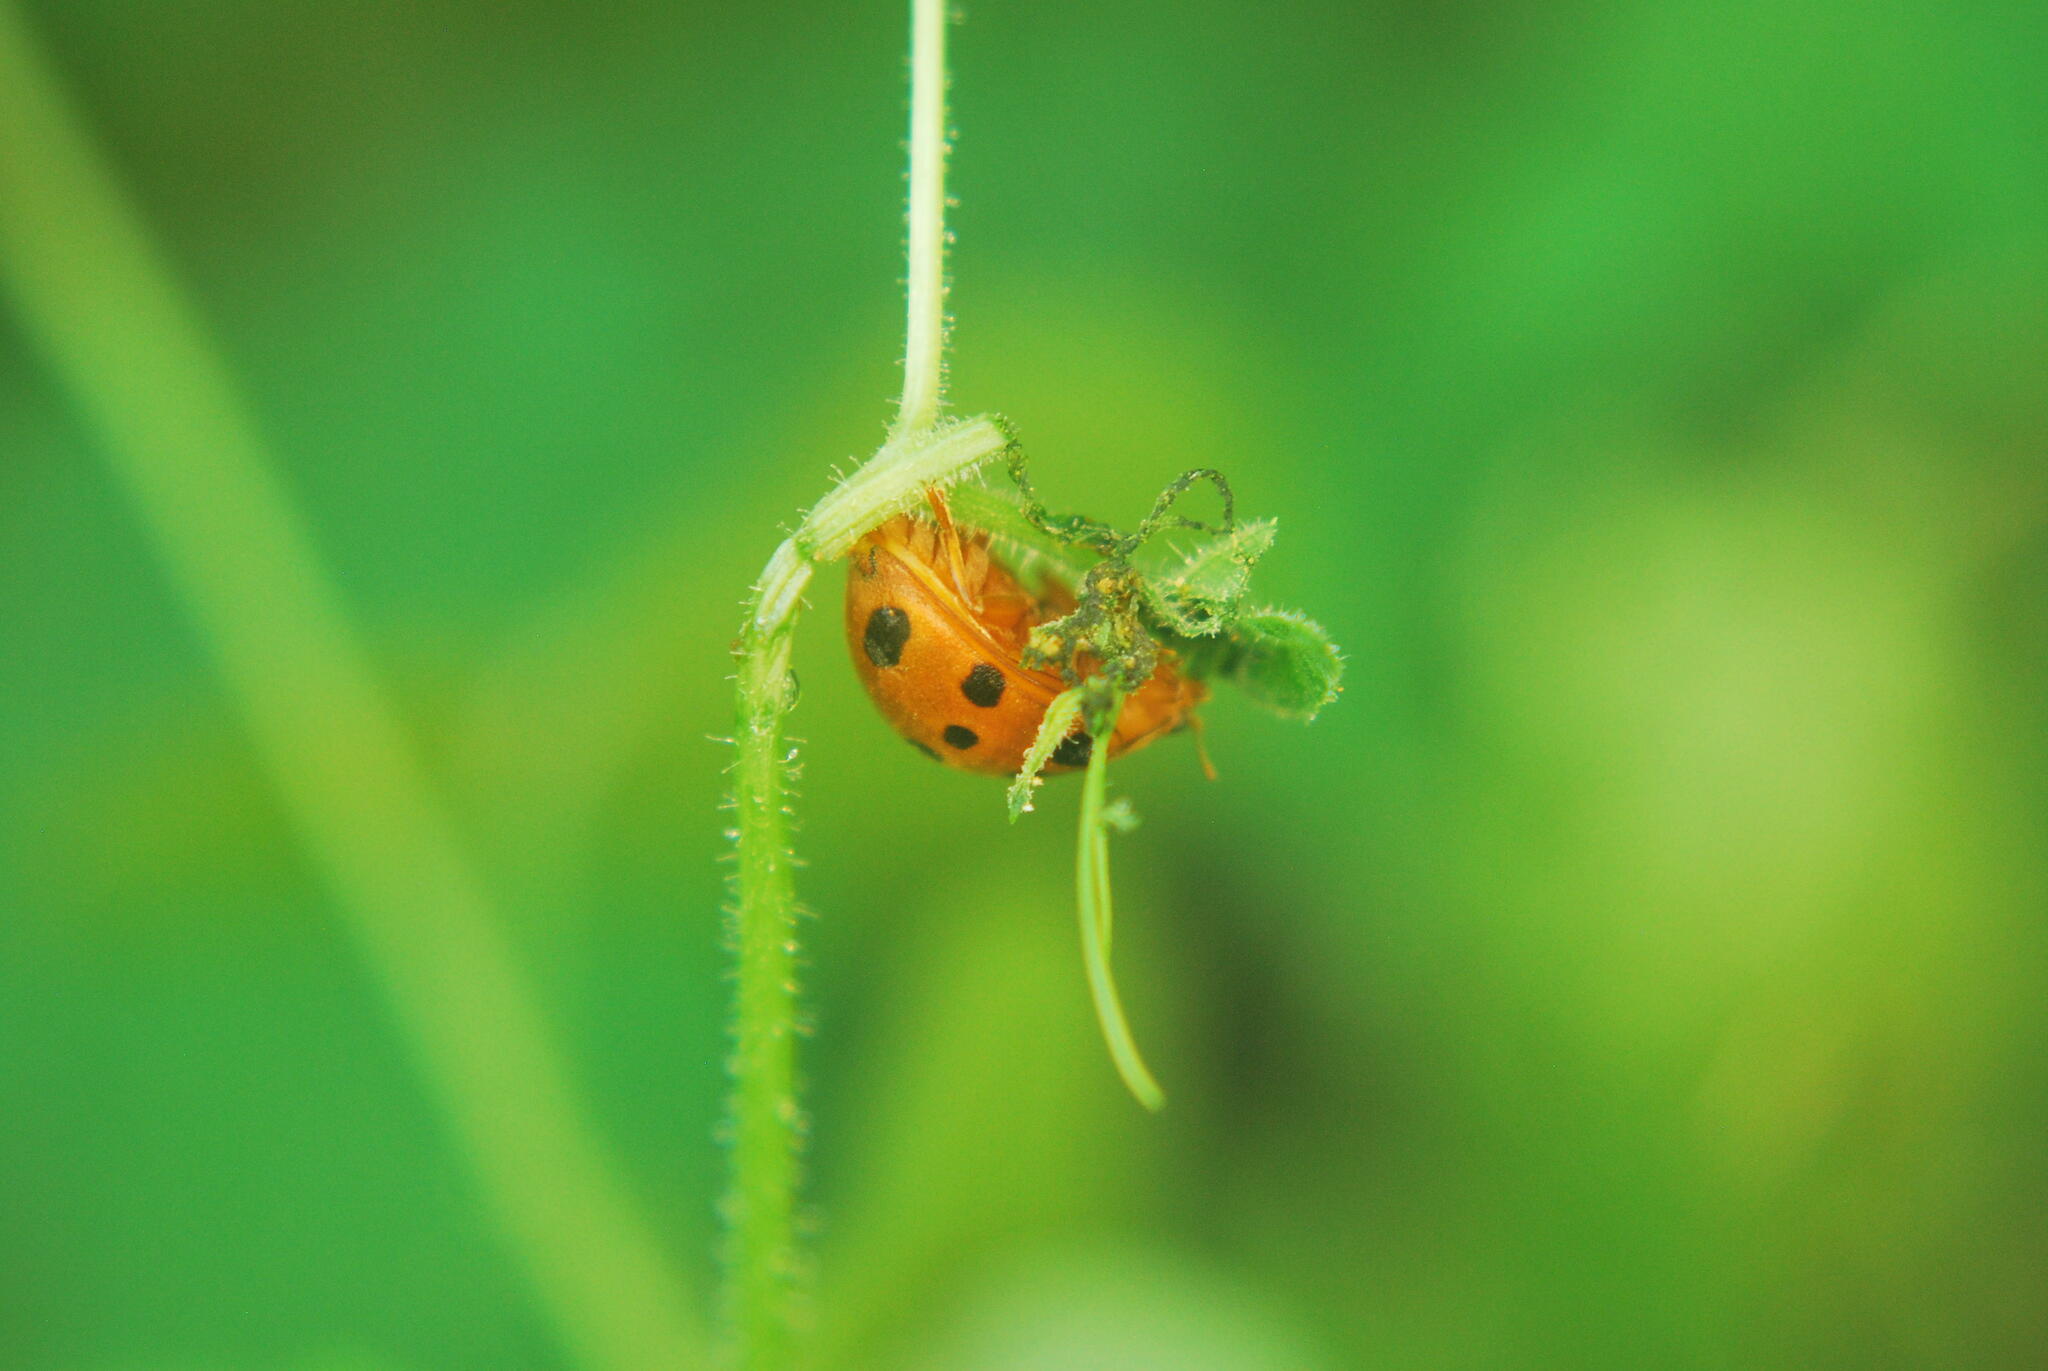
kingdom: Animalia
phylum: Arthropoda
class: Insecta
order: Coleoptera
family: Coccinellidae
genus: Epilachna
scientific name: Epilachna tredecimnotata
